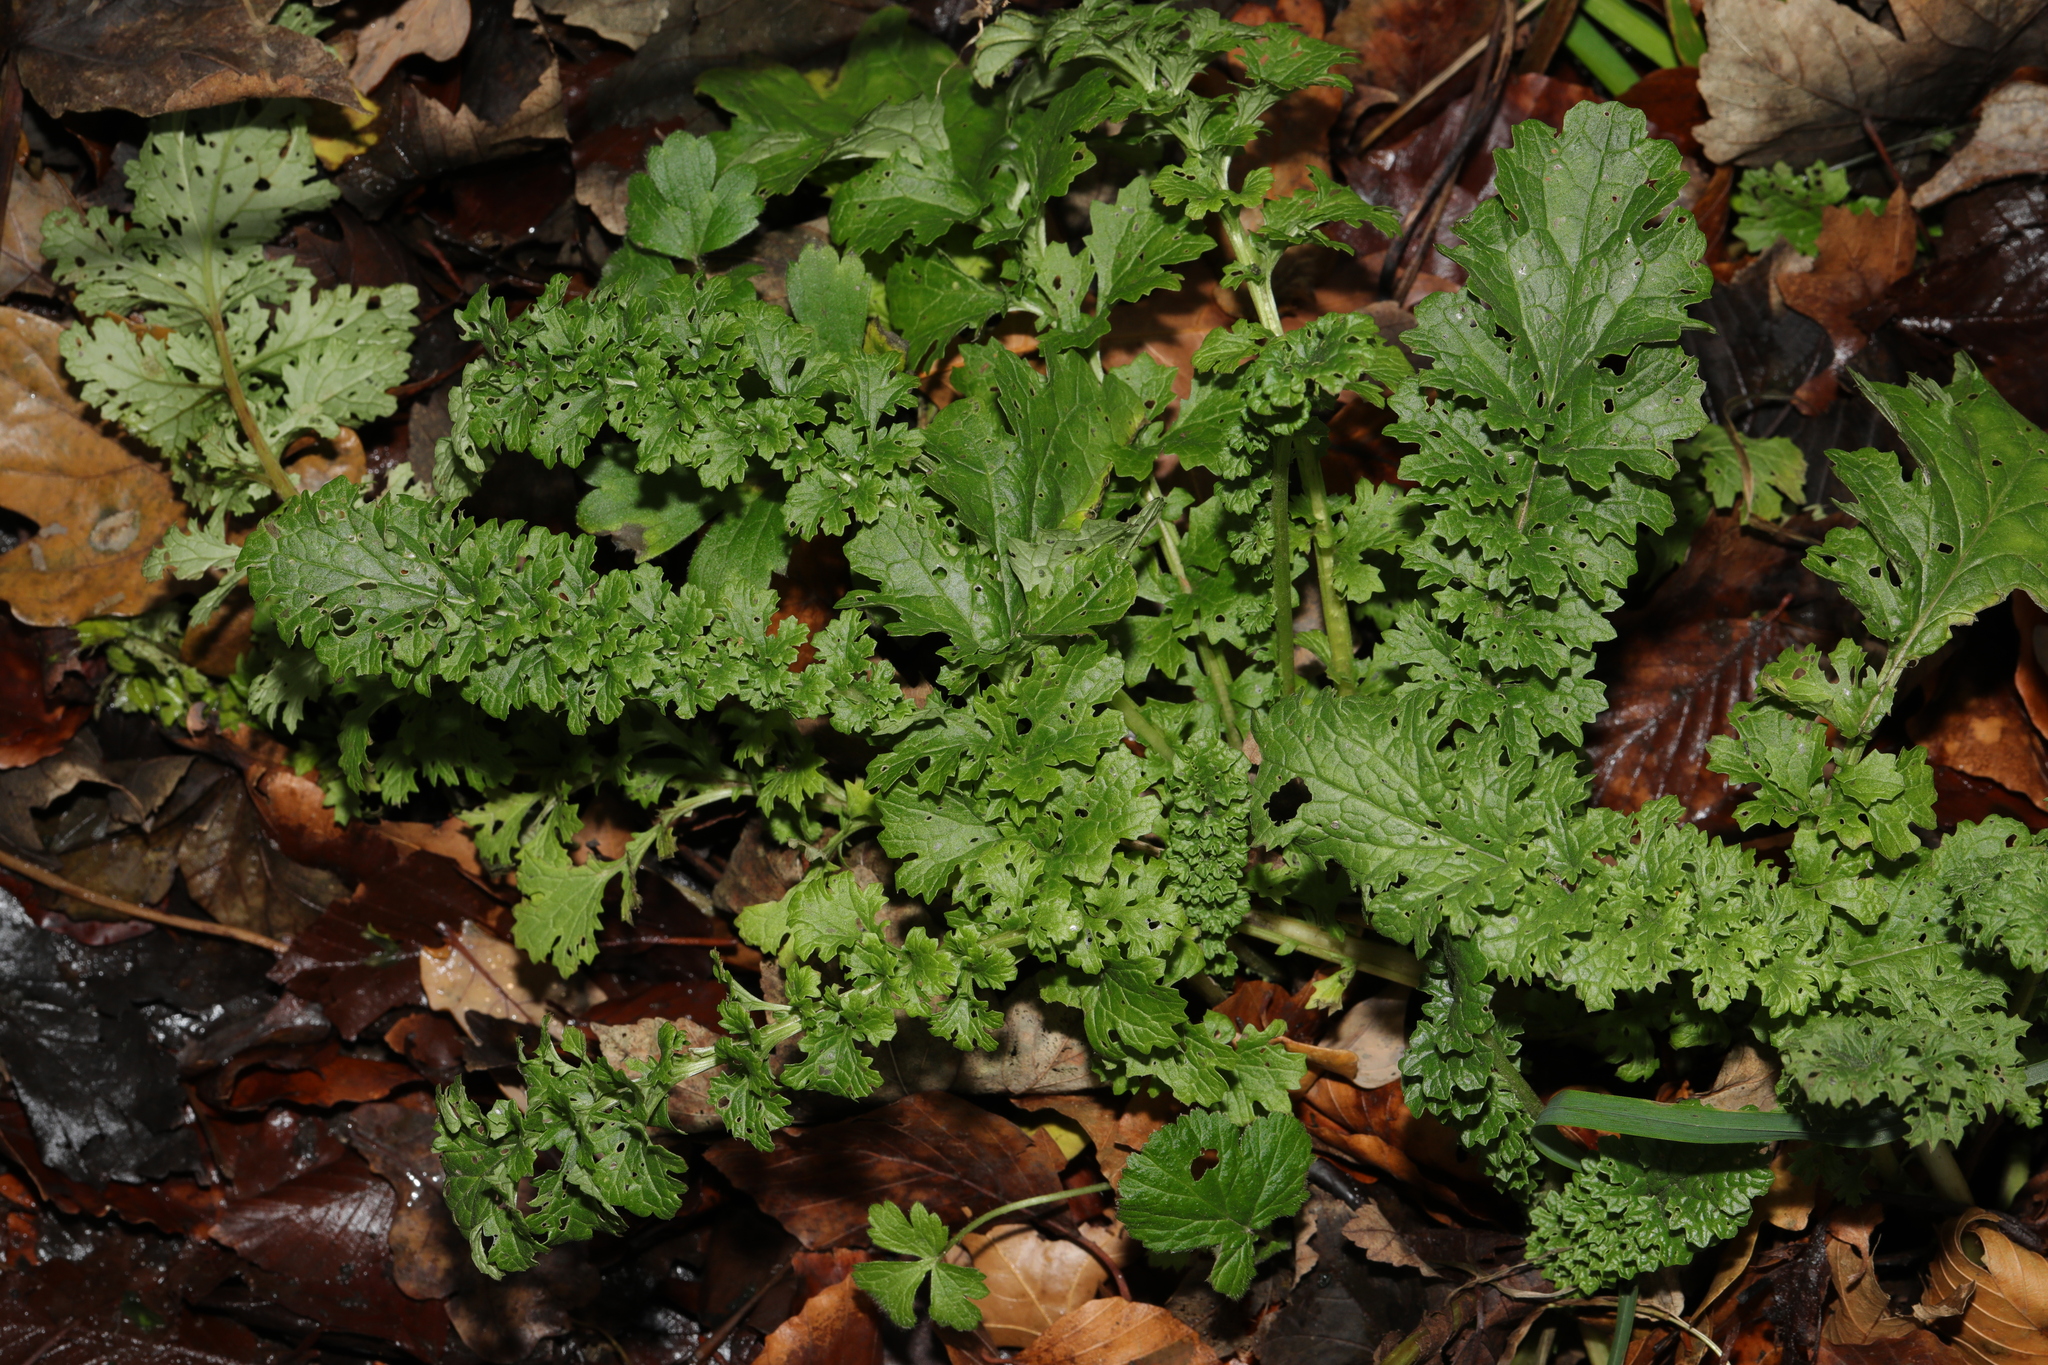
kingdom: Plantae
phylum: Tracheophyta
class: Magnoliopsida
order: Asterales
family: Asteraceae
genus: Jacobaea
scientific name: Jacobaea vulgaris
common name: Stinking willie
